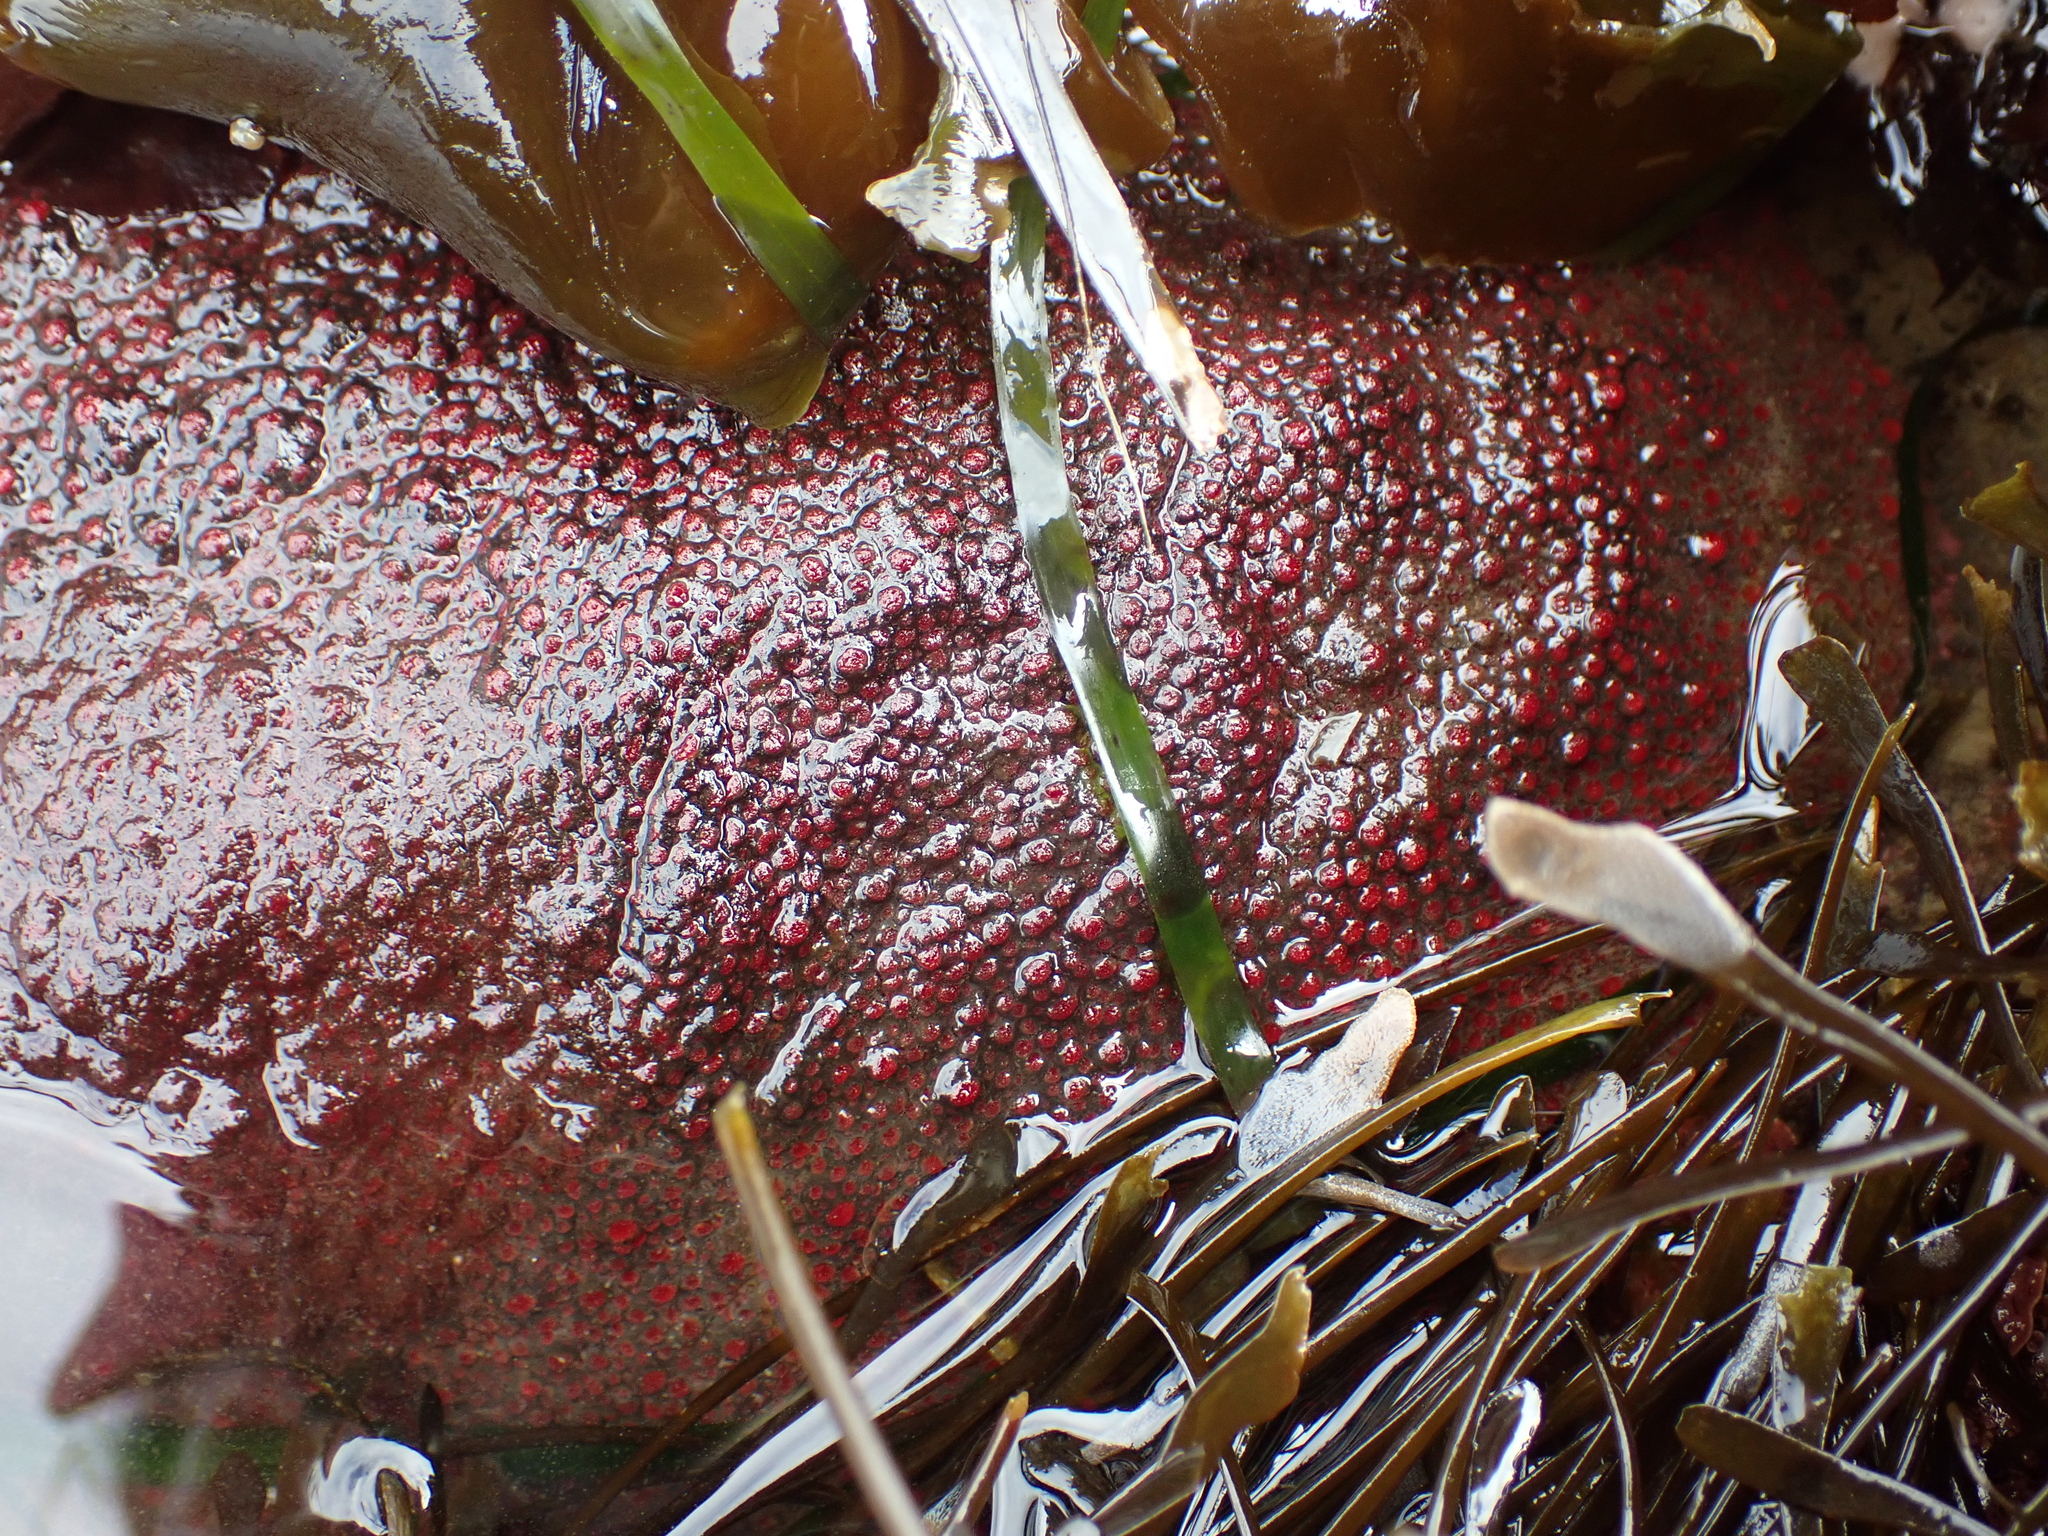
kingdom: Animalia
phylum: Mollusca
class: Polyplacophora
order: Chitonida
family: Acanthochitonidae
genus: Cryptochiton
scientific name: Cryptochiton stelleri
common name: Giant pacific chiton
